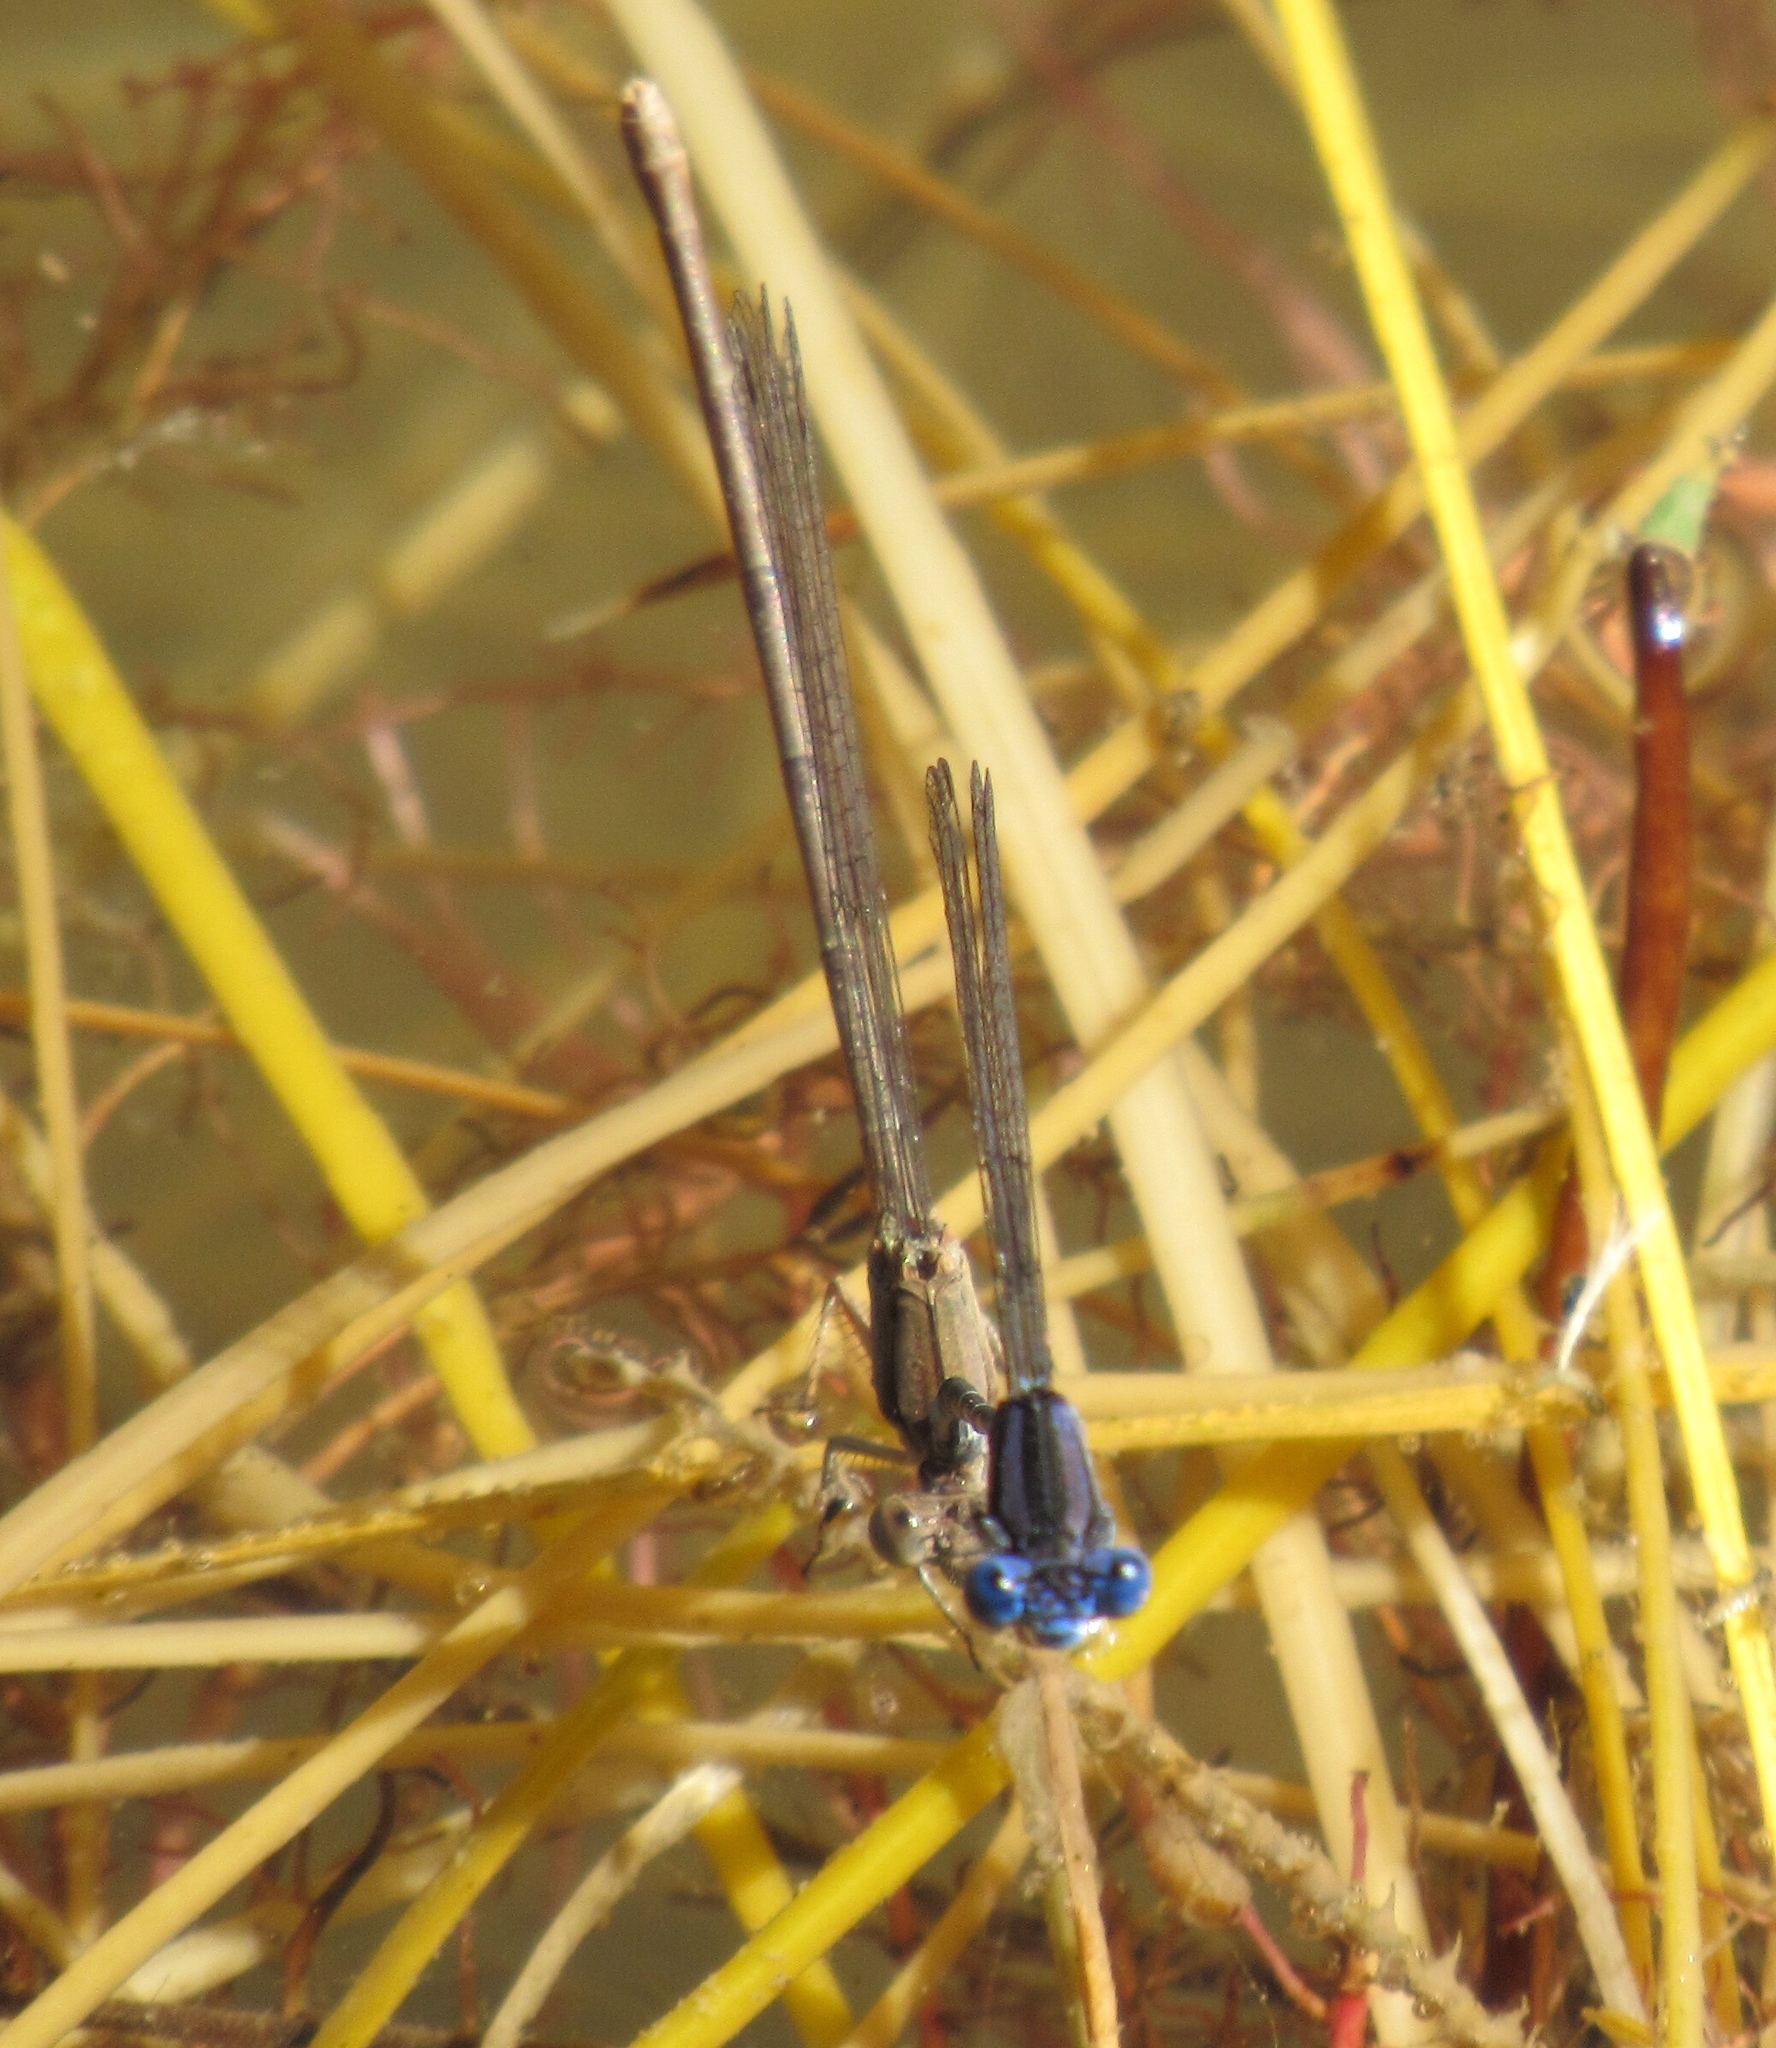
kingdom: Animalia
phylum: Arthropoda
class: Insecta
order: Odonata
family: Coenagrionidae
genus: Argia
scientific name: Argia sedula
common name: Blue-ringed dancer
